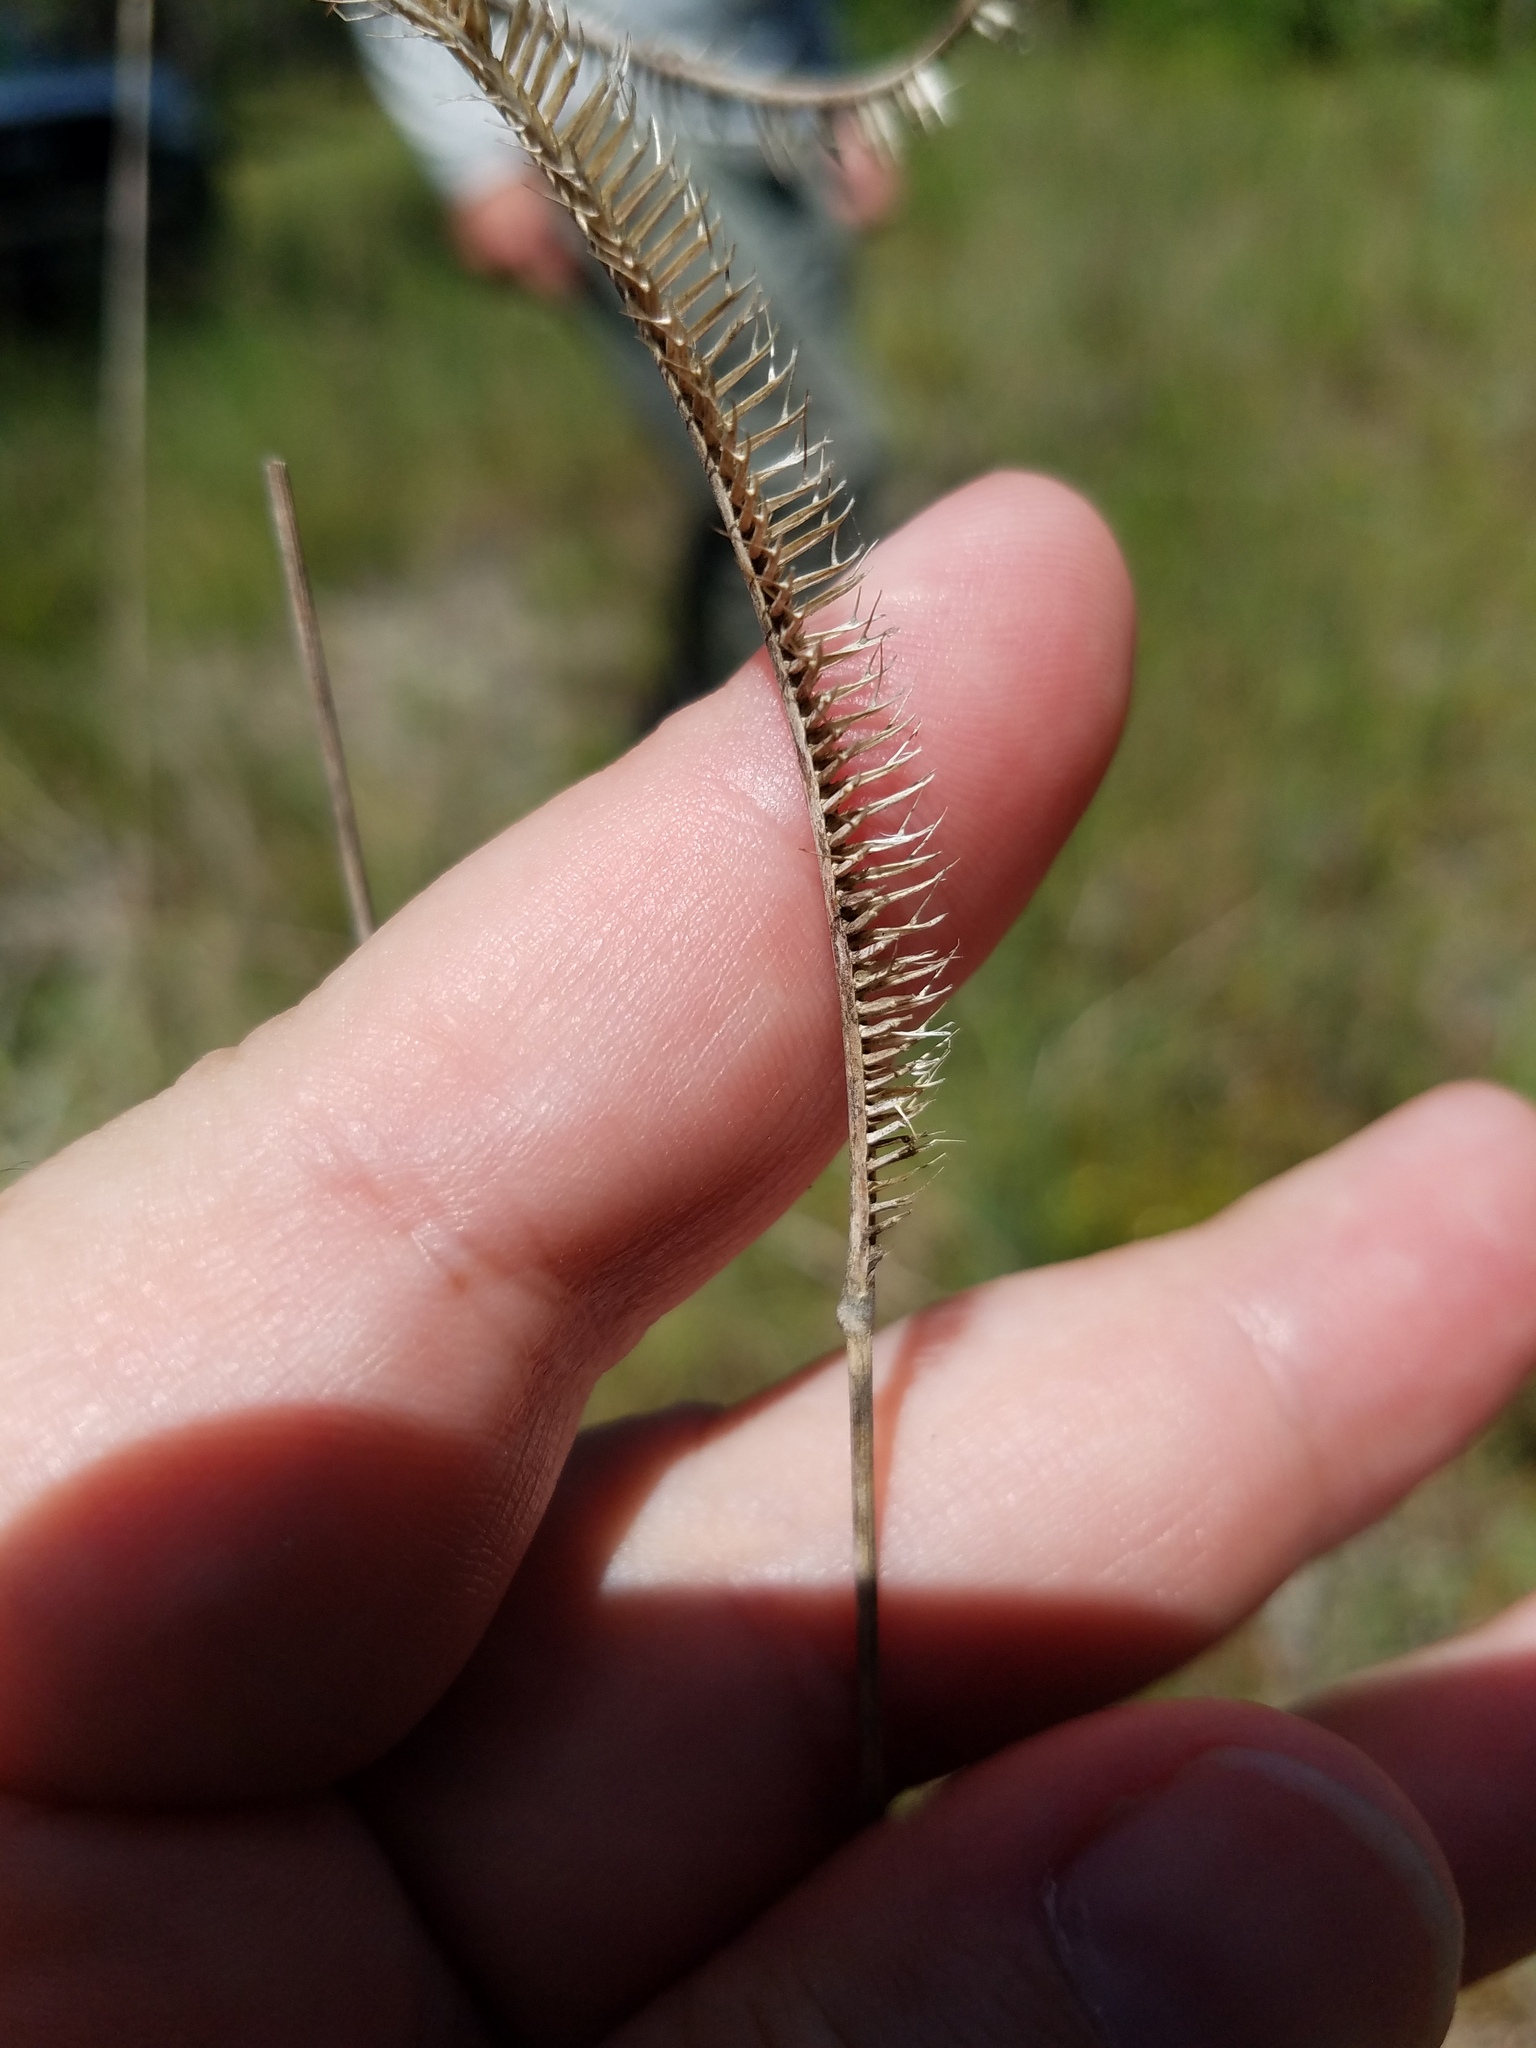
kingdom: Plantae
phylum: Tracheophyta
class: Liliopsida
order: Poales
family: Poaceae
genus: Ctenium
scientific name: Ctenium floridanum
